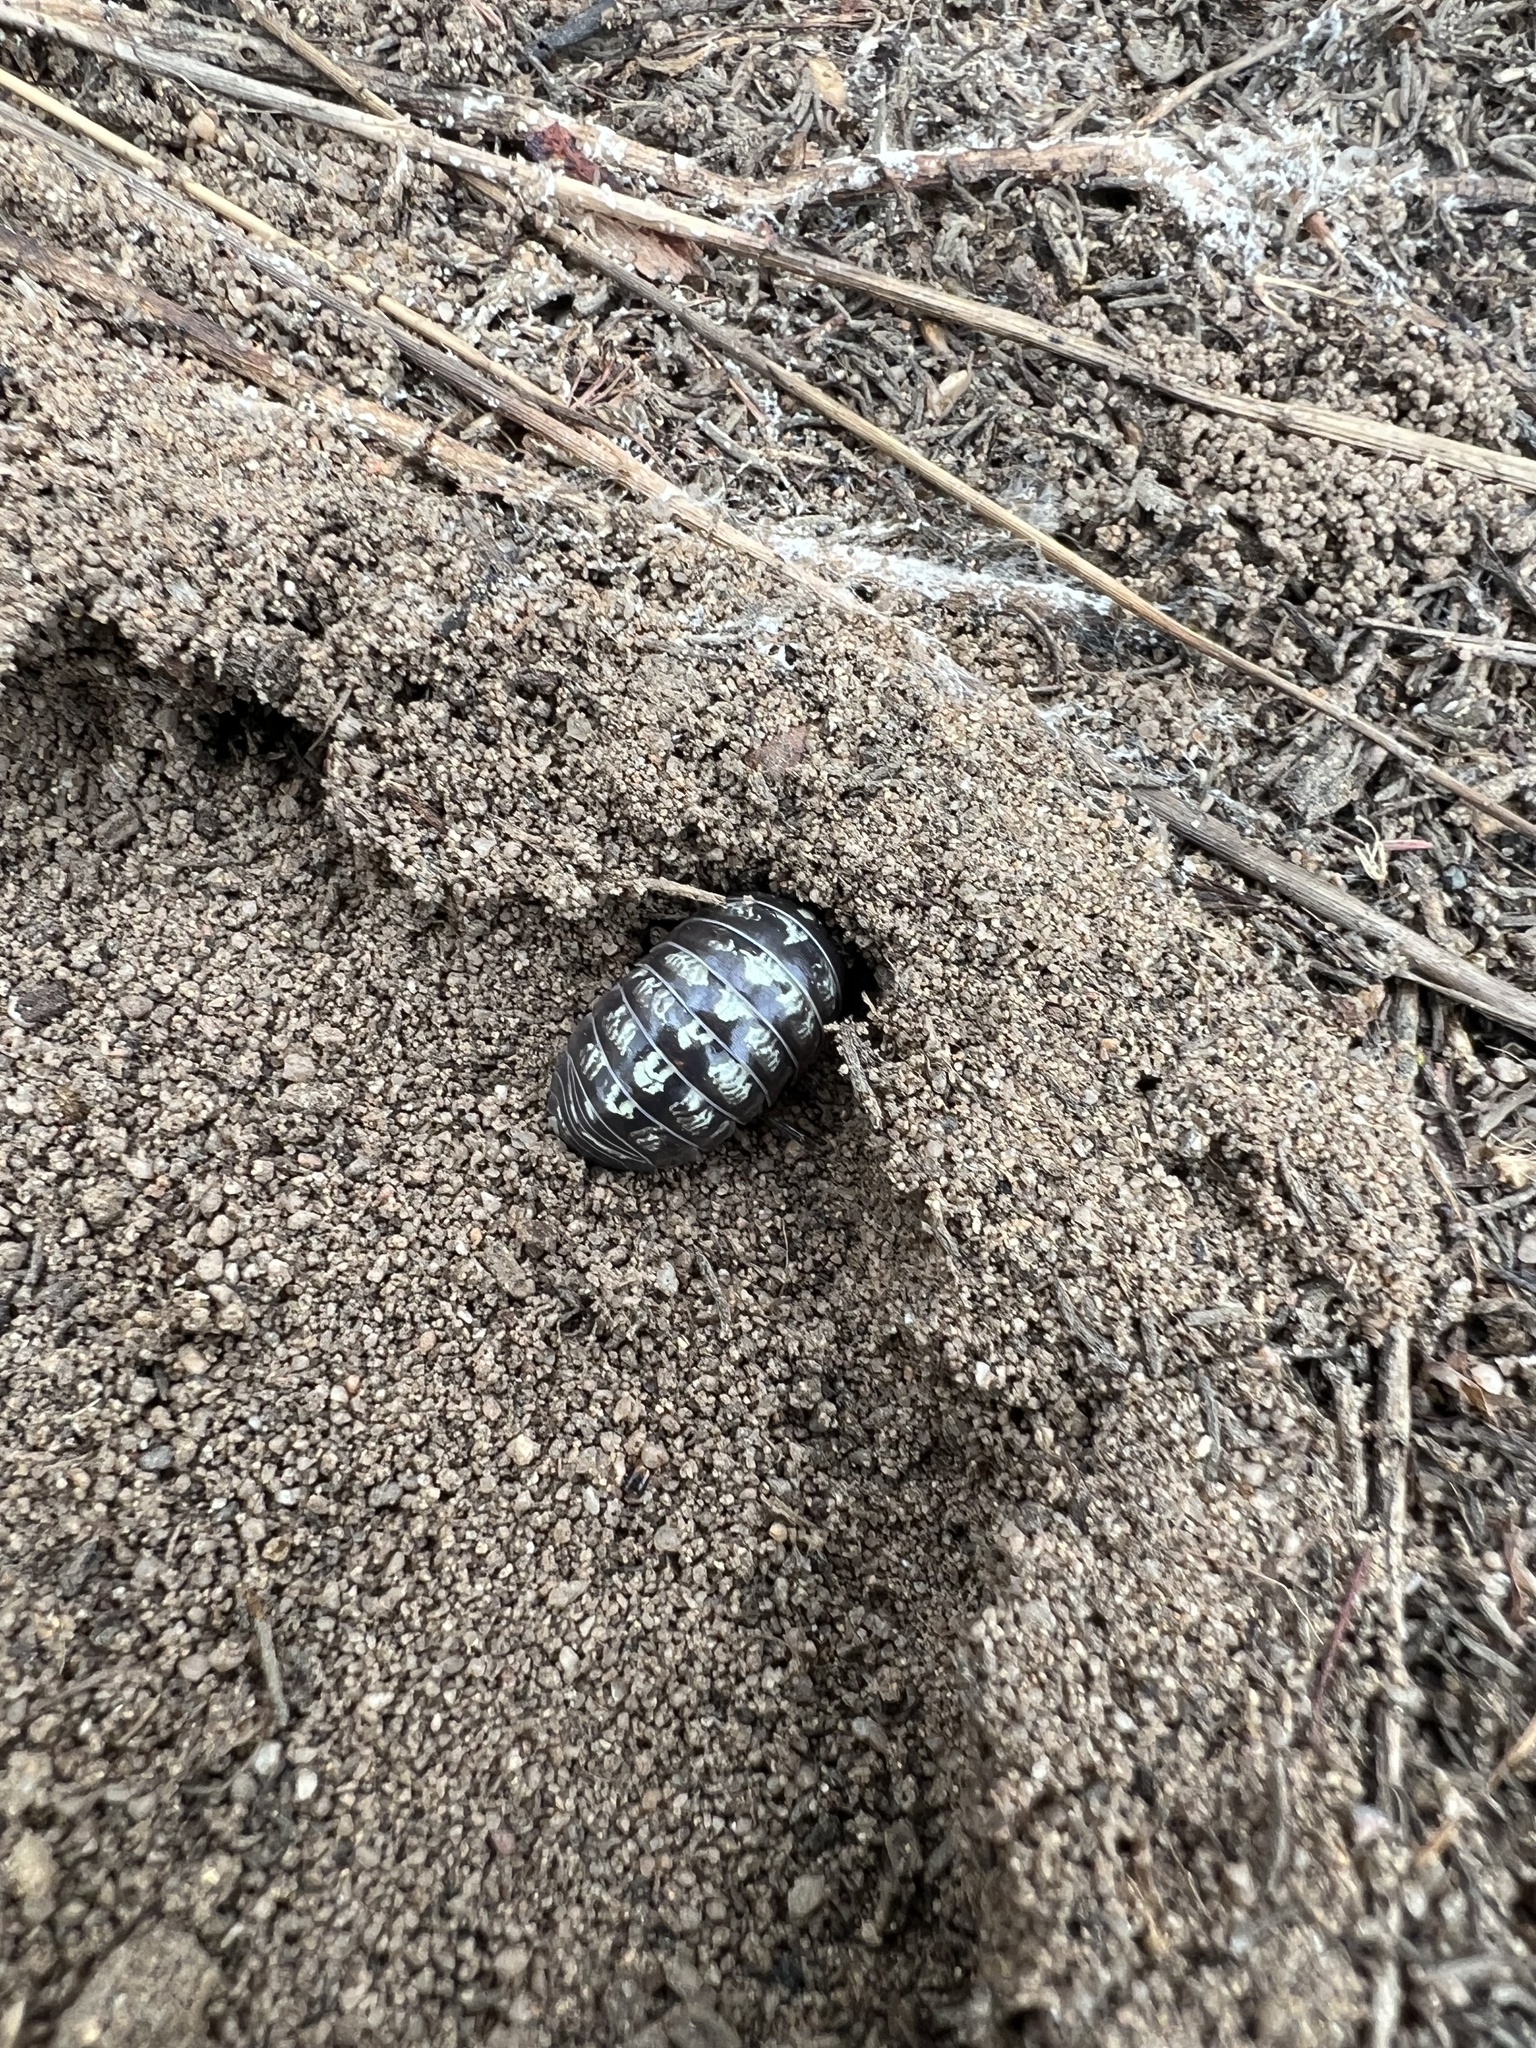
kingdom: Animalia
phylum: Arthropoda
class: Malacostraca
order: Isopoda
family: Armadillidiidae
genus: Armadillidium
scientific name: Armadillidium vulgare
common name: Common pill woodlouse
